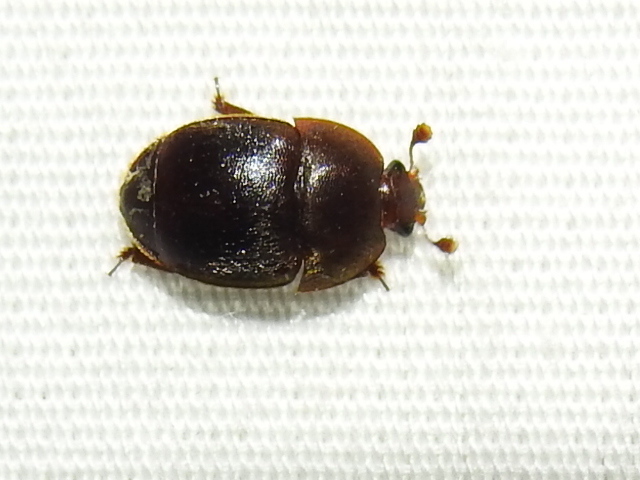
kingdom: Animalia
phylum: Arthropoda
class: Insecta
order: Coleoptera
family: Nitidulidae
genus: Aethina
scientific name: Aethina tumida
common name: Small hive beetle
